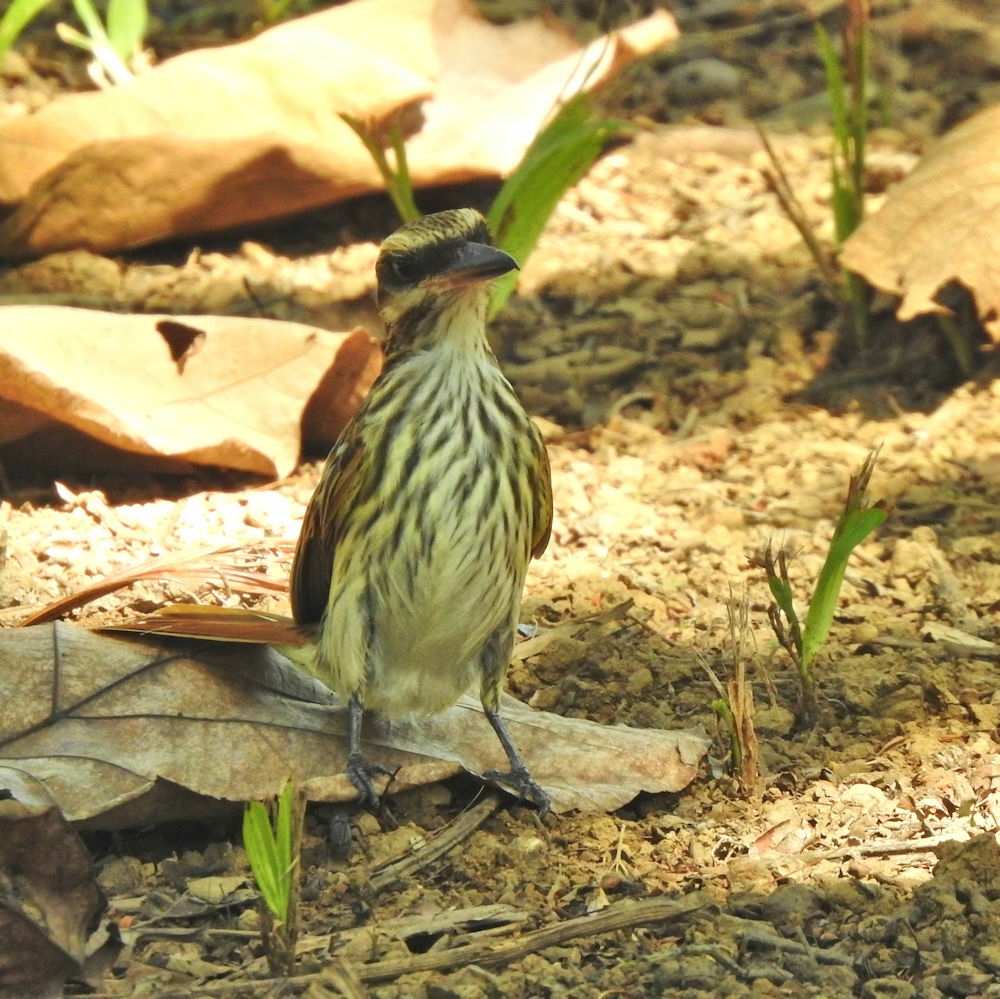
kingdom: Animalia
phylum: Chordata
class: Aves
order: Passeriformes
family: Tyrannidae
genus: Myiodynastes
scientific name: Myiodynastes maculatus
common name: Streaked flycatcher
